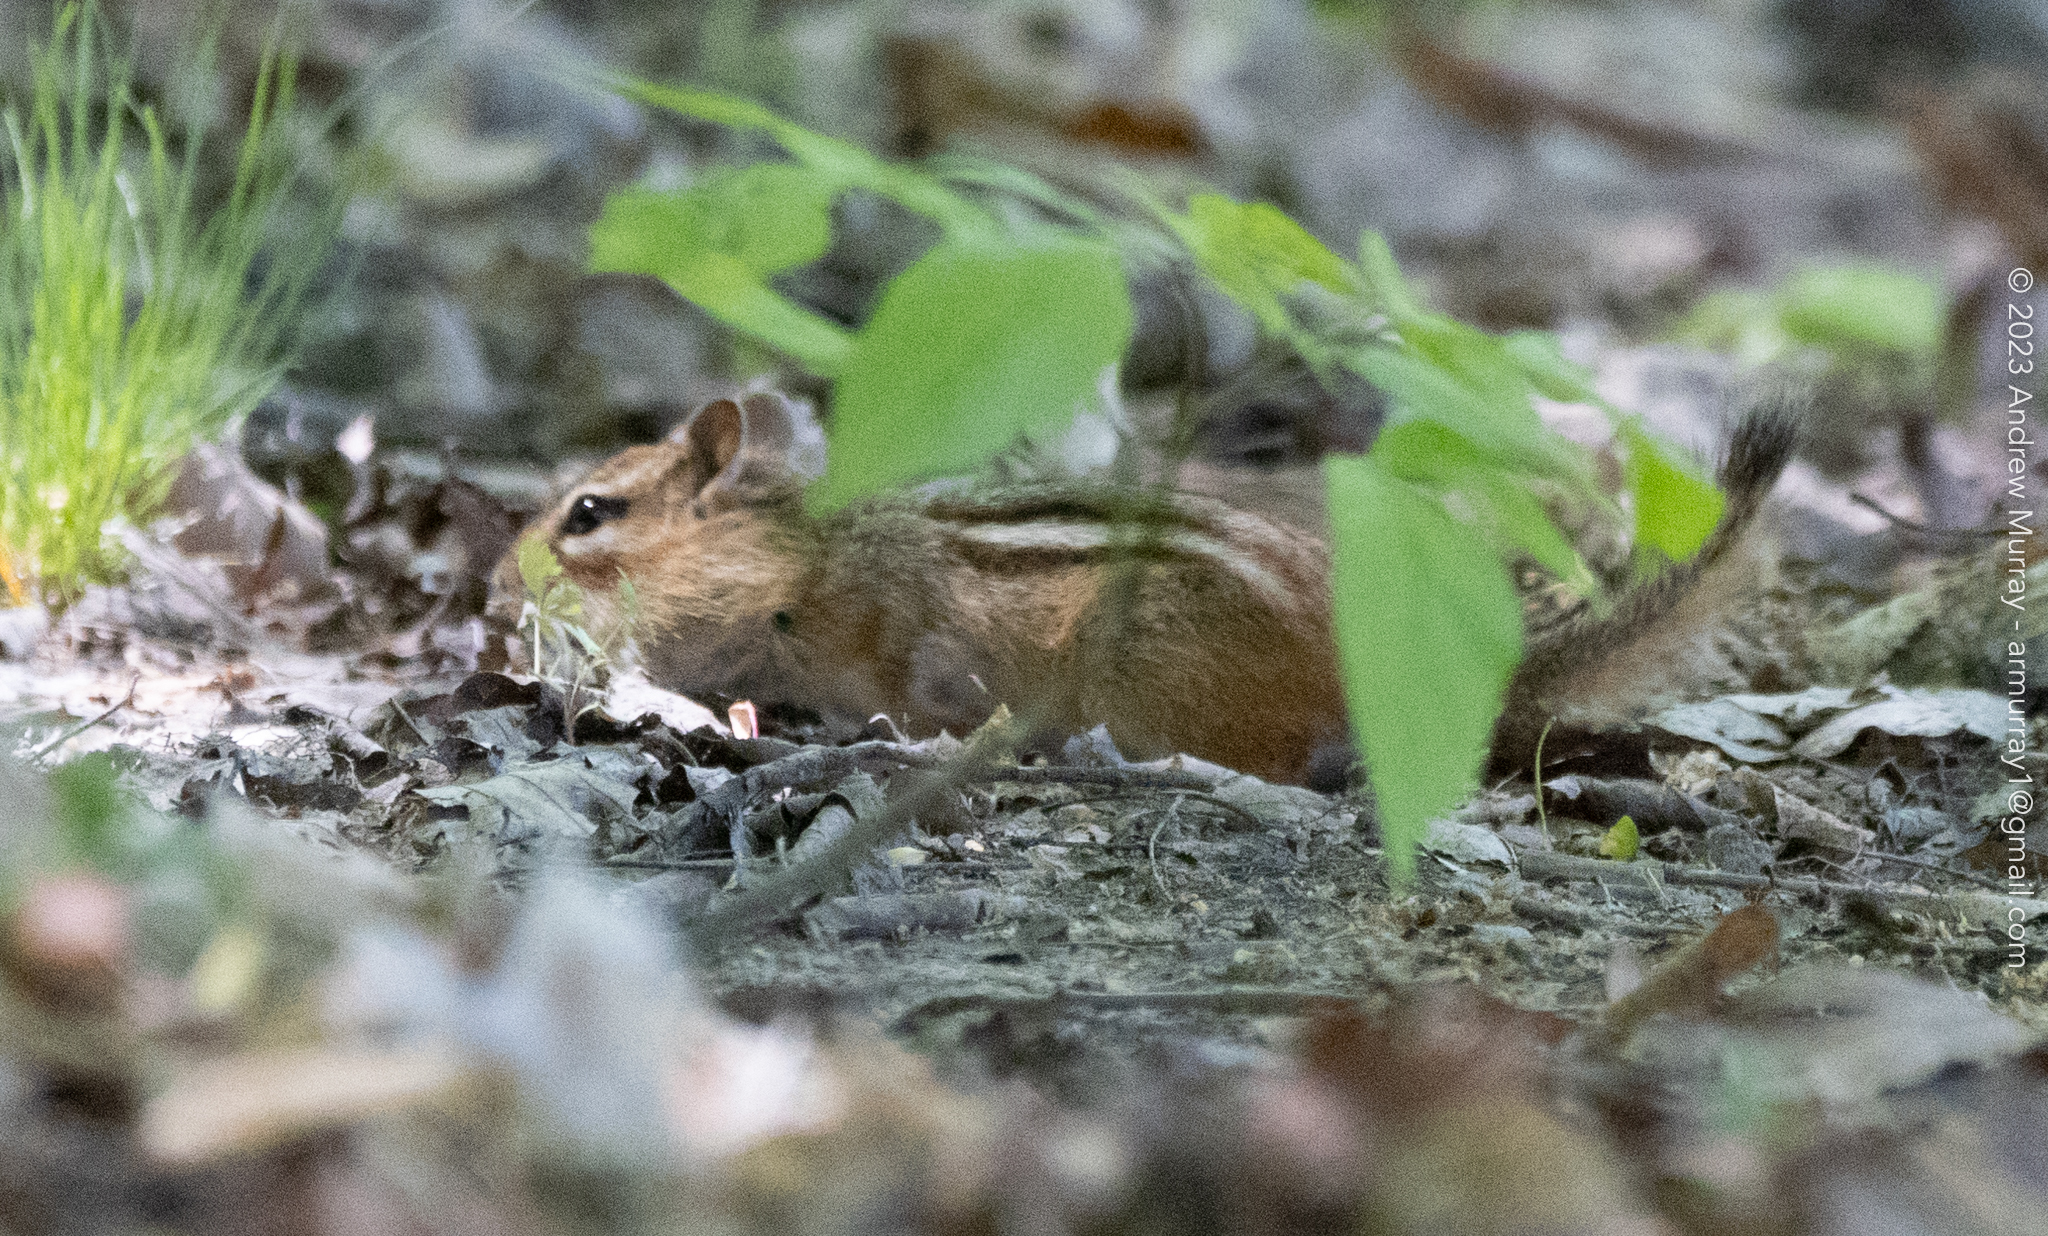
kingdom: Animalia
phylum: Chordata
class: Mammalia
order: Rodentia
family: Sciuridae
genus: Tamias
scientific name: Tamias striatus
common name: Eastern chipmunk
